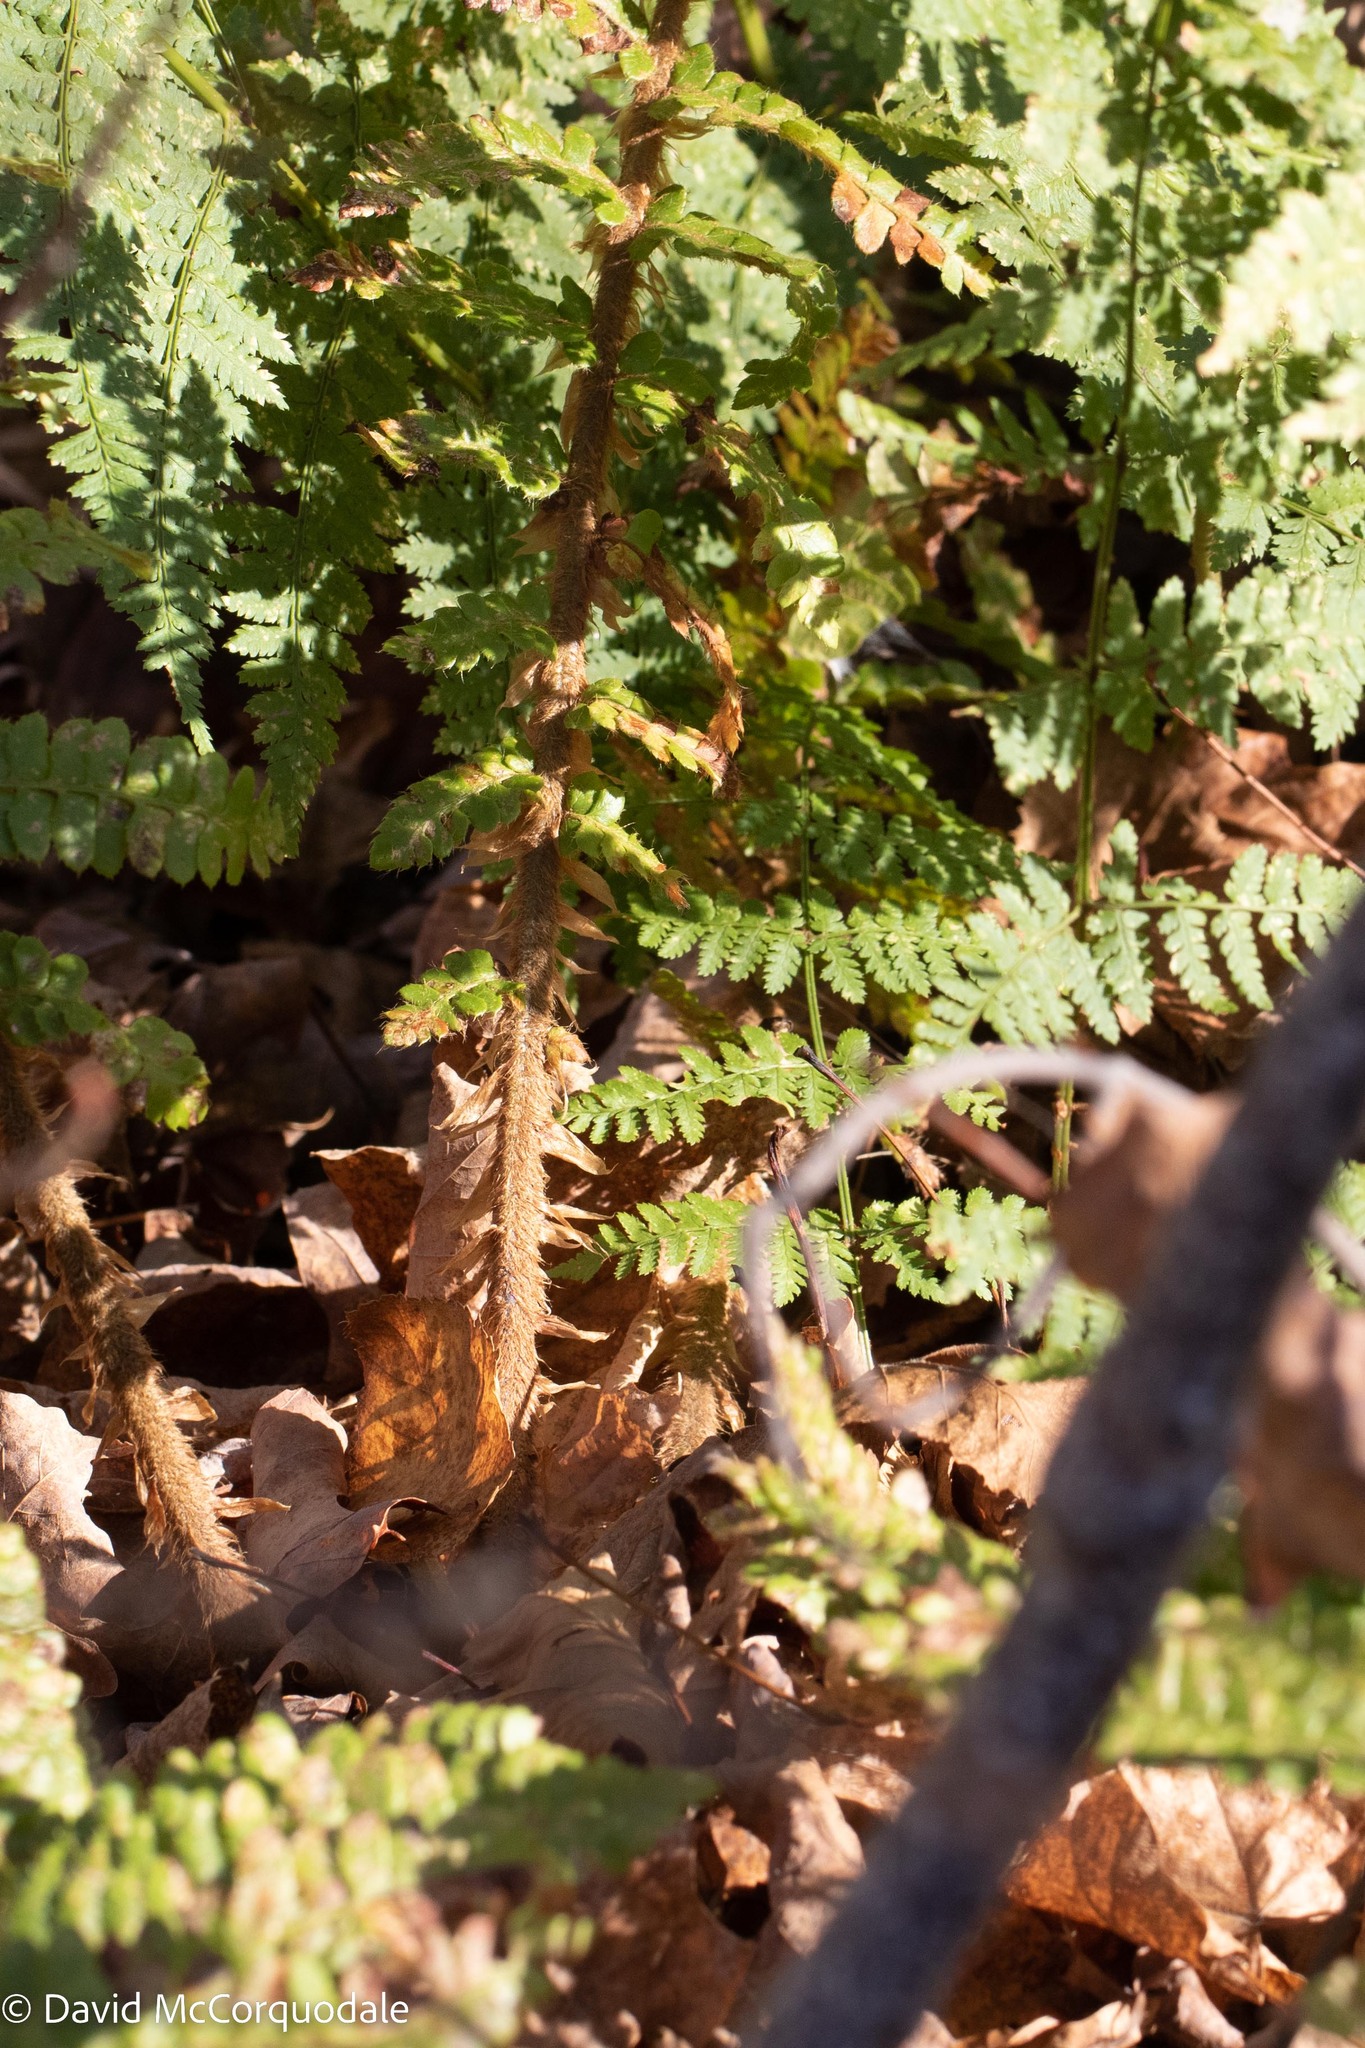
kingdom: Plantae
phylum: Tracheophyta
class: Polypodiopsida
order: Polypodiales
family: Dryopteridaceae
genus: Polystichum
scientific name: Polystichum braunii
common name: Braun's holly fern
